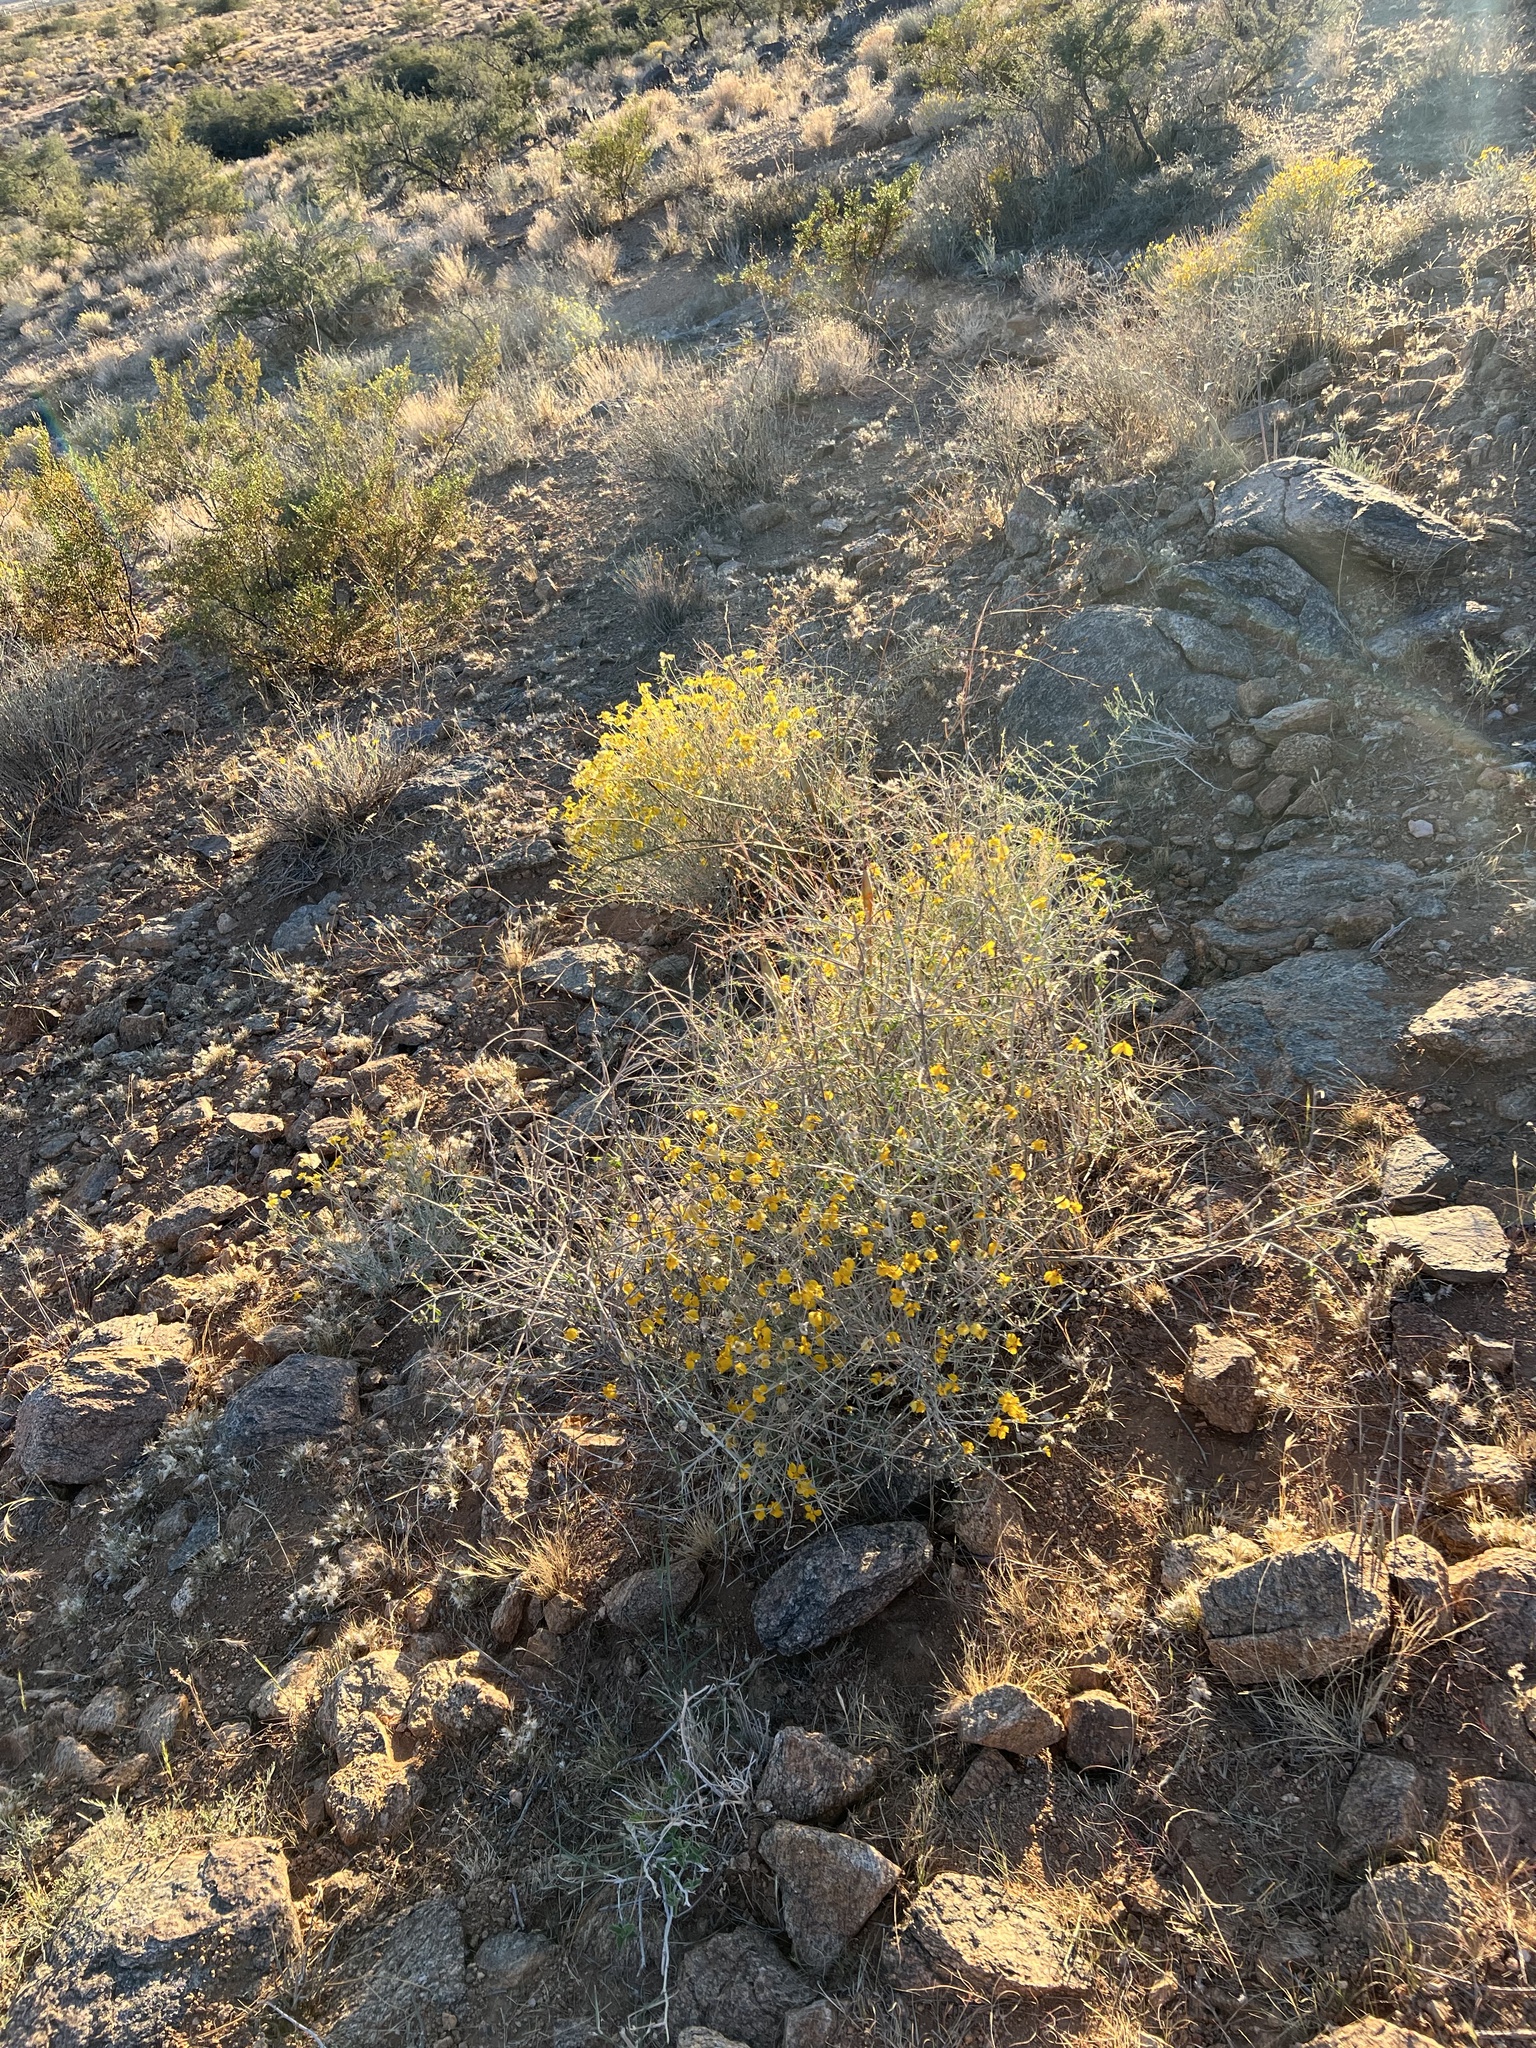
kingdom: Plantae
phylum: Tracheophyta
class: Magnoliopsida
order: Asterales
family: Asteraceae
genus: Psilostrophe
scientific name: Psilostrophe cooperi
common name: White-stem paper-flower
